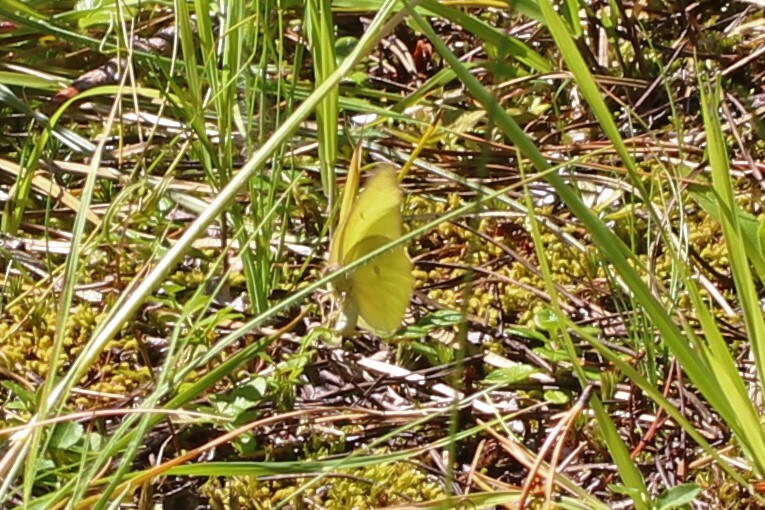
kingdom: Animalia
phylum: Arthropoda
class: Insecta
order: Lepidoptera
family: Pieridae
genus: Colias
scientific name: Colias interior
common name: Pink-edged sulphur
